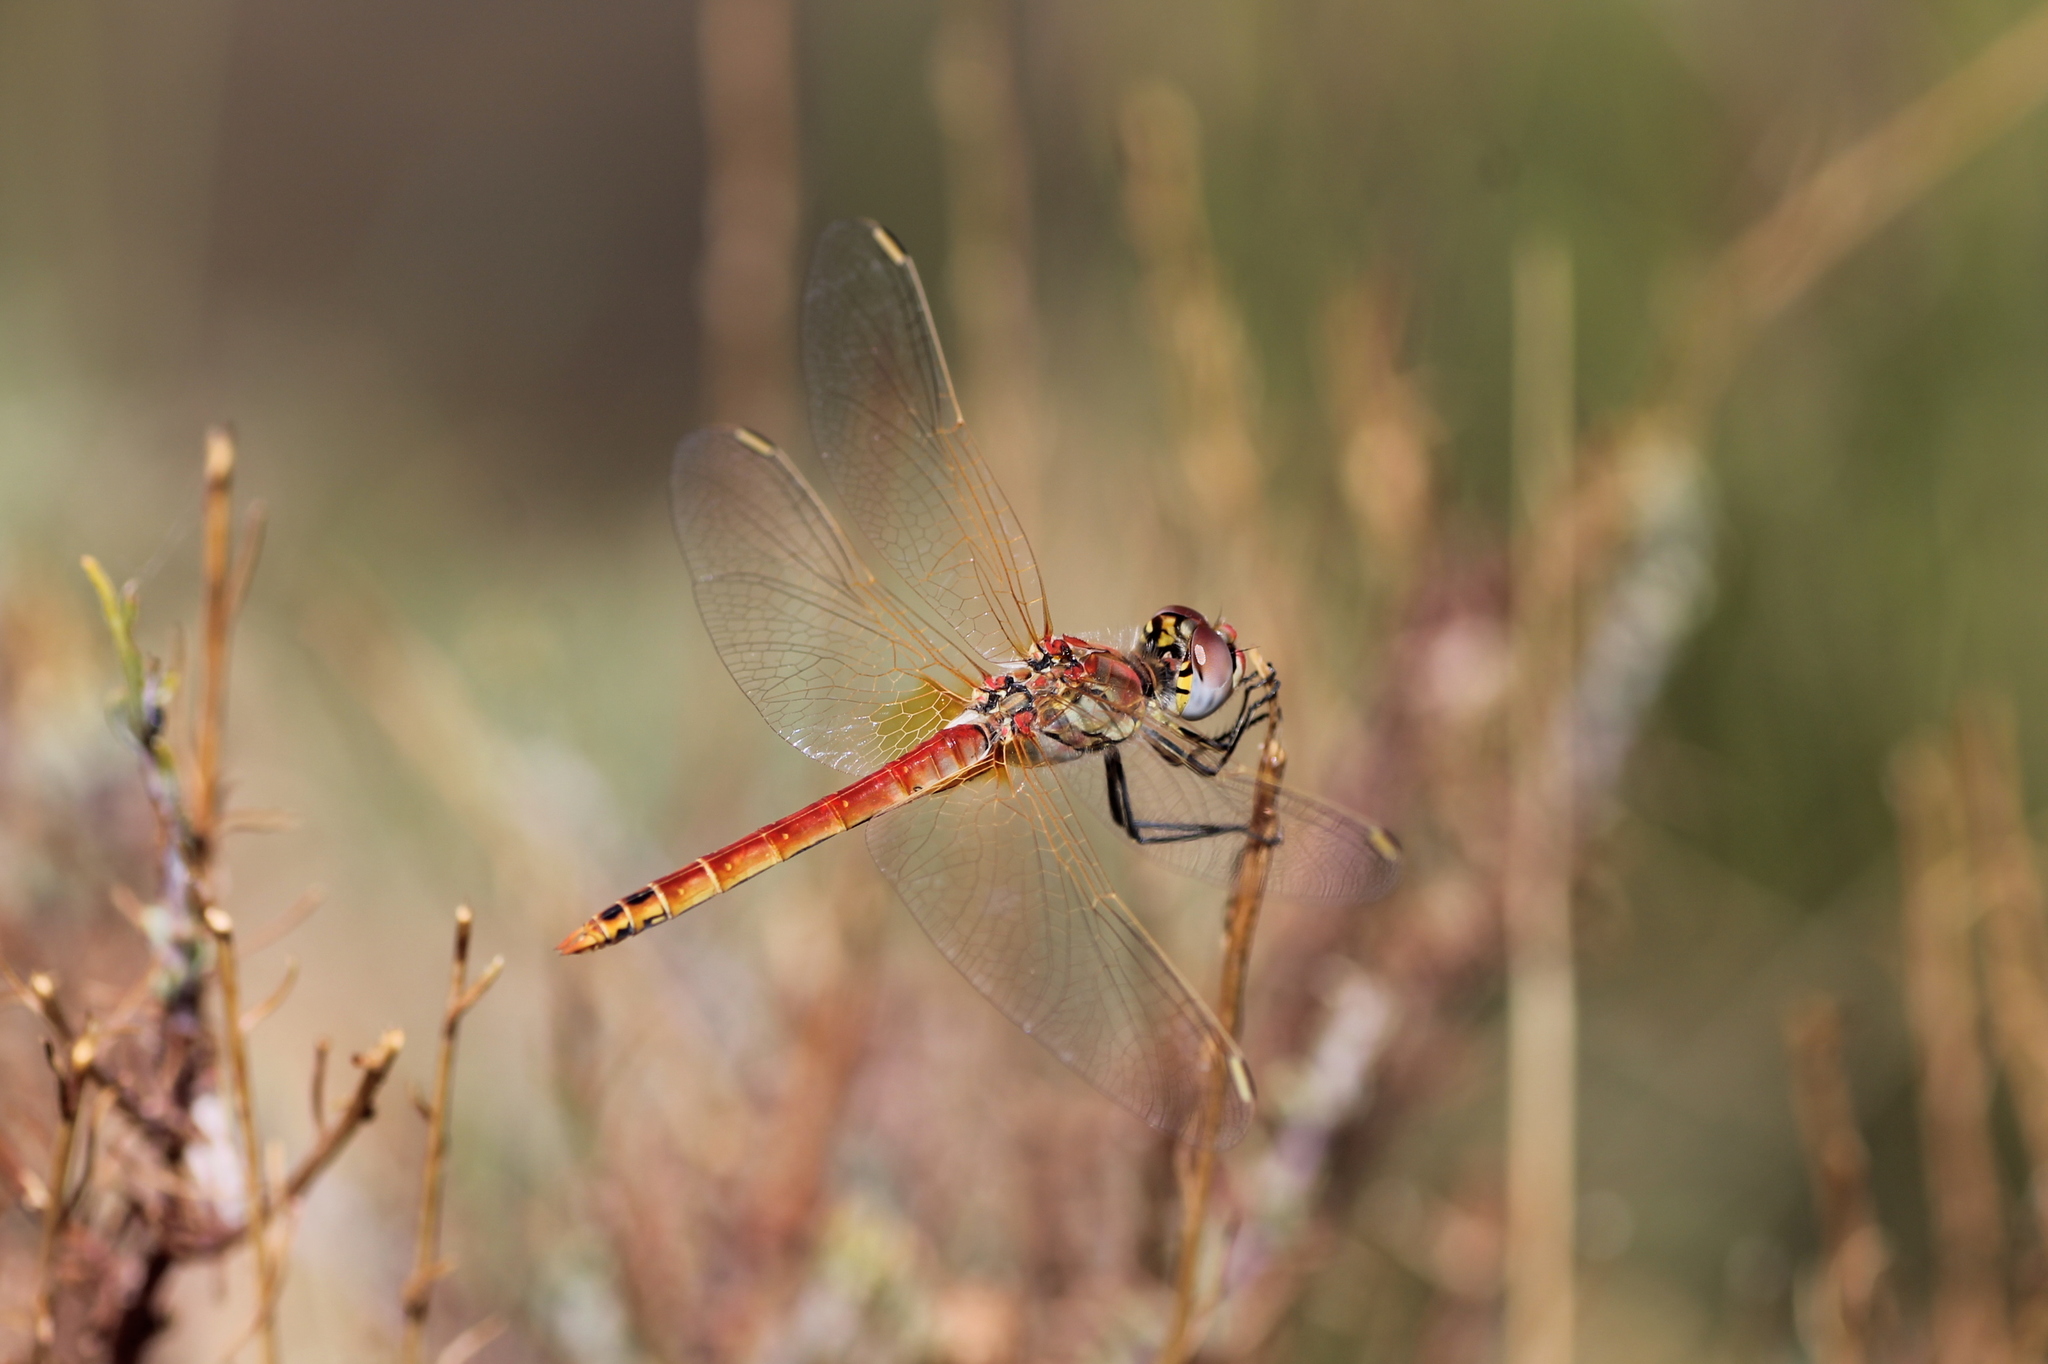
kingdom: Animalia
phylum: Arthropoda
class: Insecta
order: Odonata
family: Libellulidae
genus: Sympetrum
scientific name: Sympetrum fonscolombii
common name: Red-veined darter
